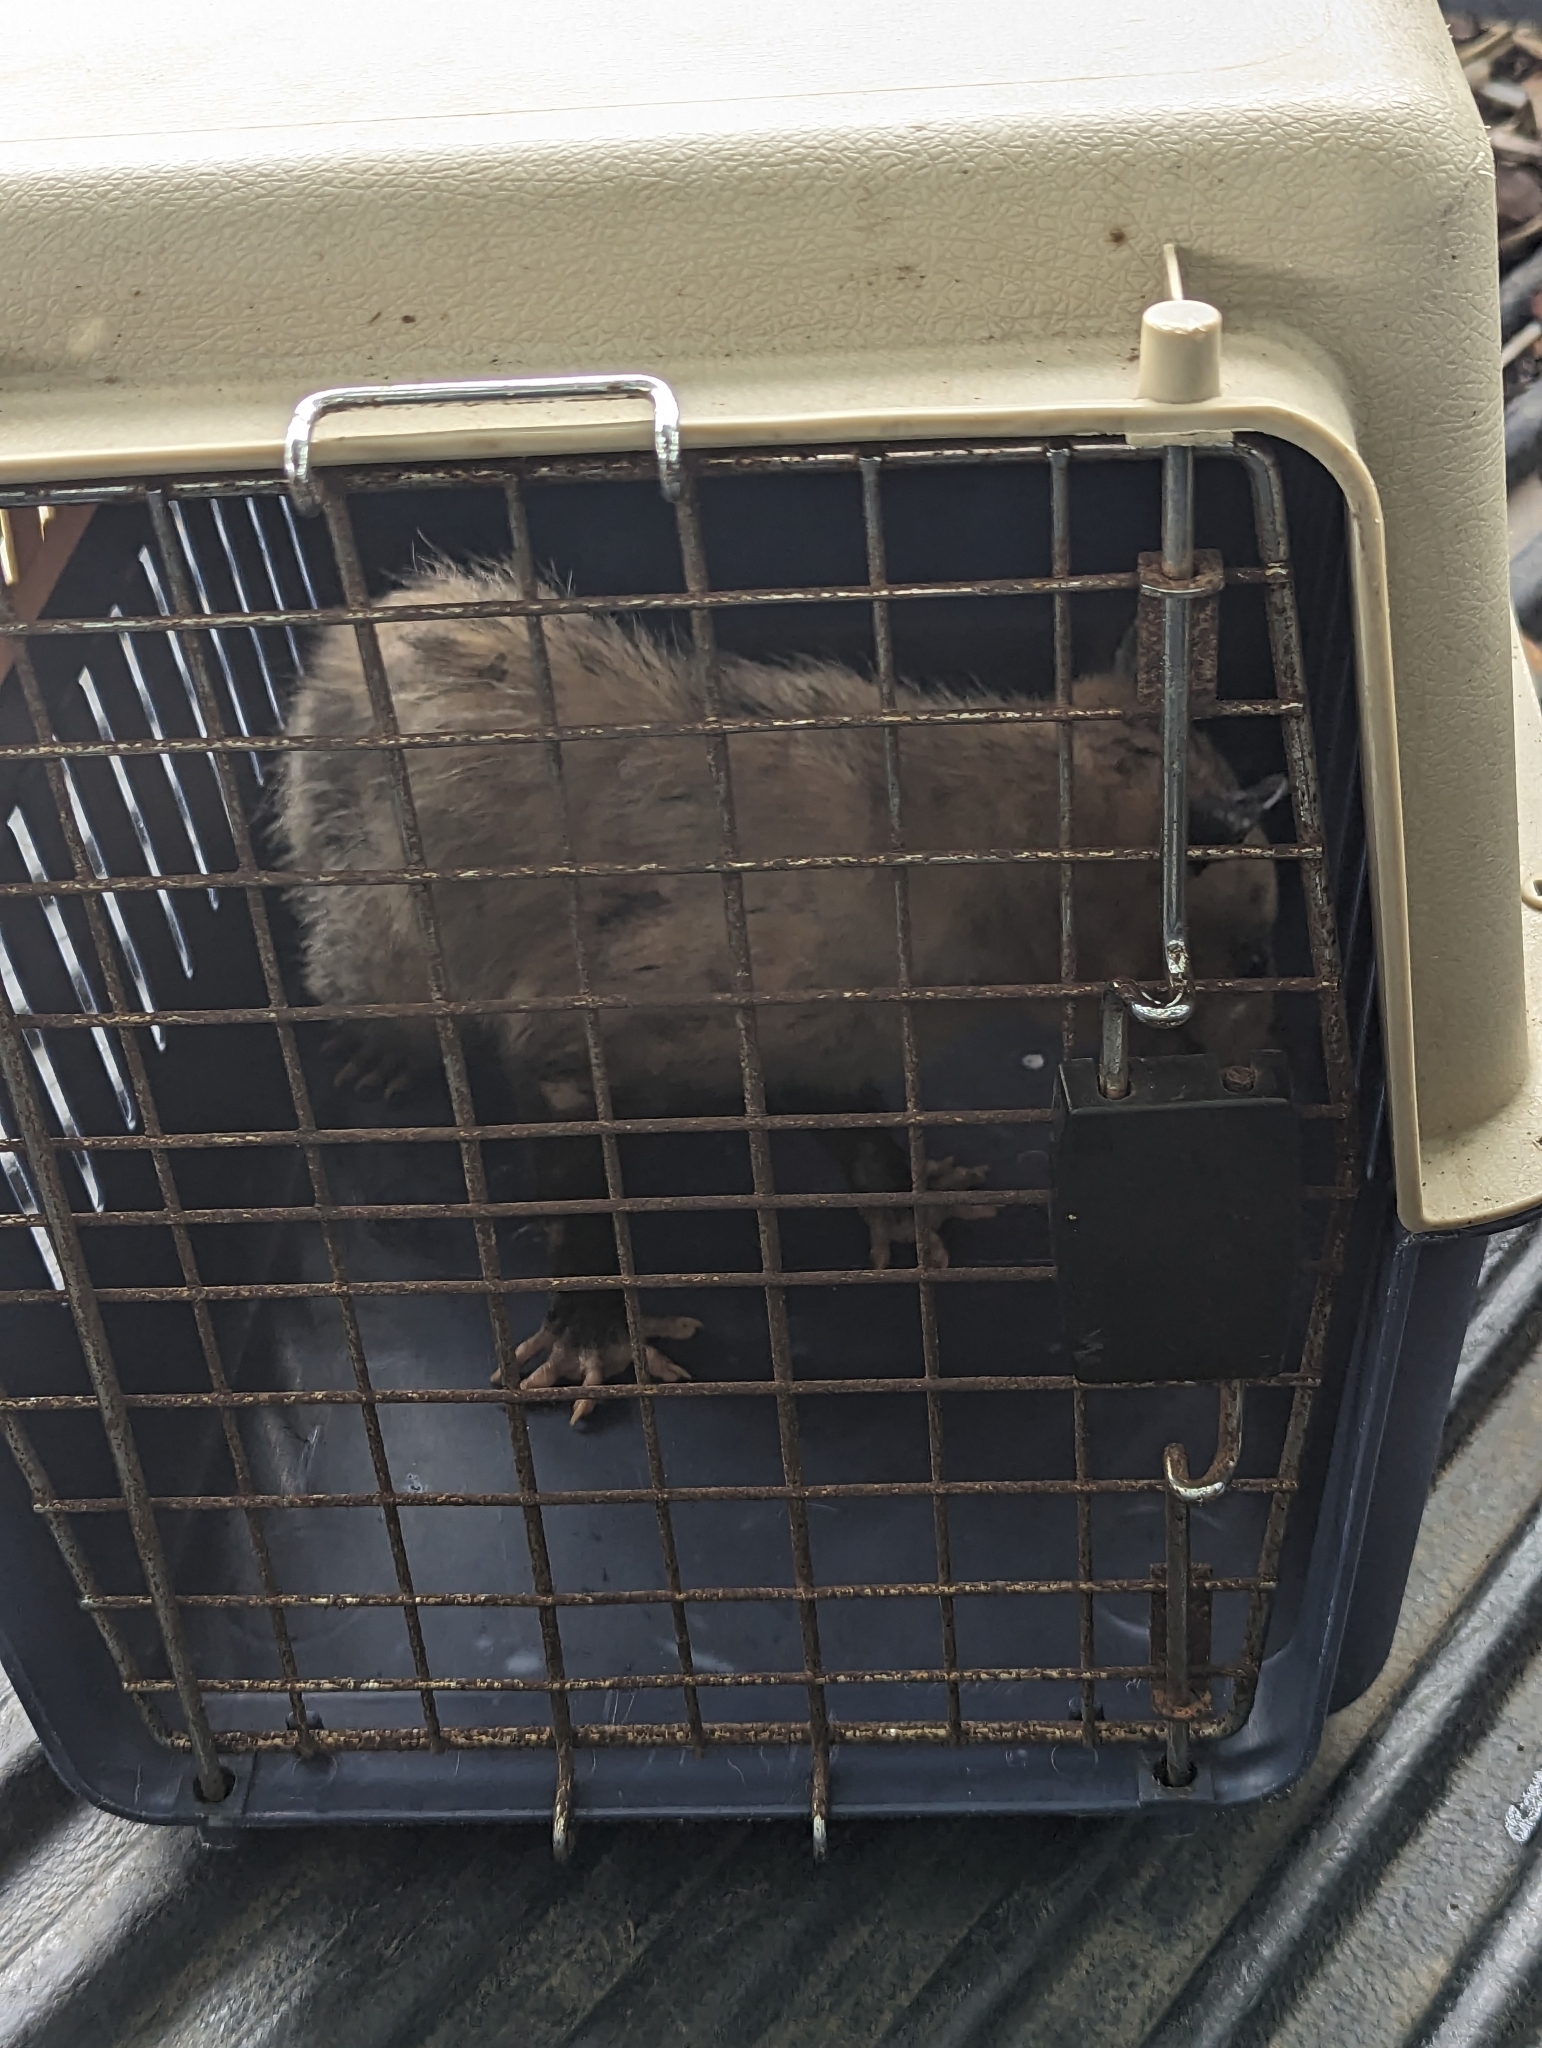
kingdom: Animalia
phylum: Chordata
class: Mammalia
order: Didelphimorphia
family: Didelphidae
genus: Didelphis
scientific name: Didelphis marsupialis
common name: Common opossum
